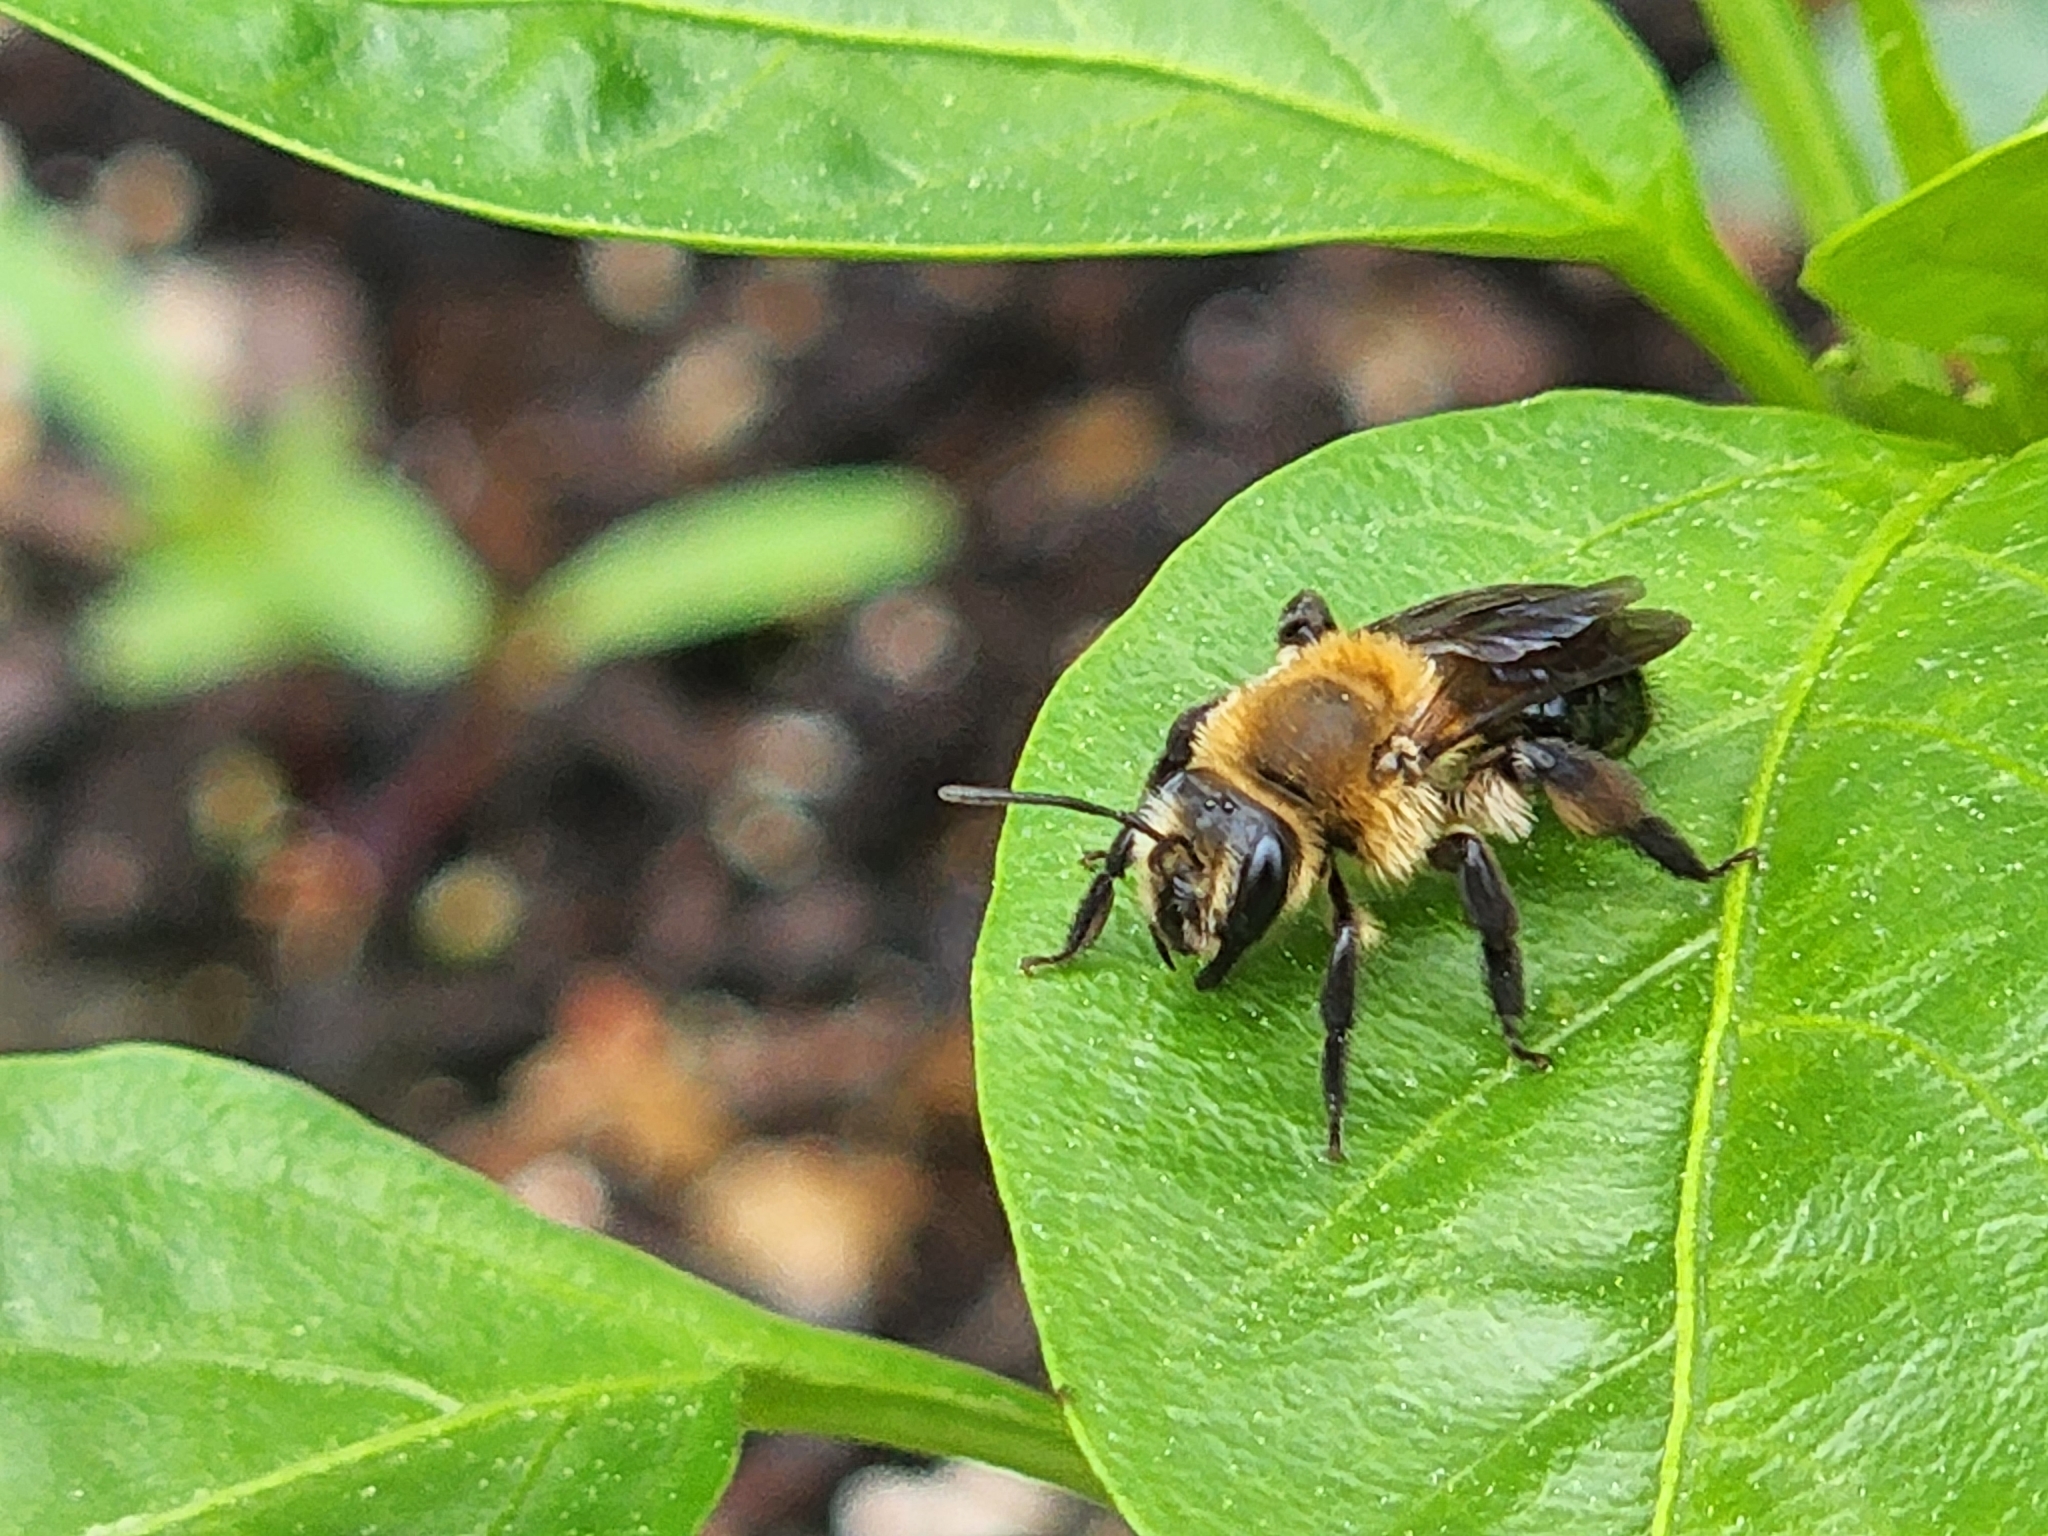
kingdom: Animalia
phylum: Arthropoda
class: Insecta
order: Hymenoptera
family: Andrenidae
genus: Andrena
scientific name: Andrena dunningi
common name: Dunning's miner
